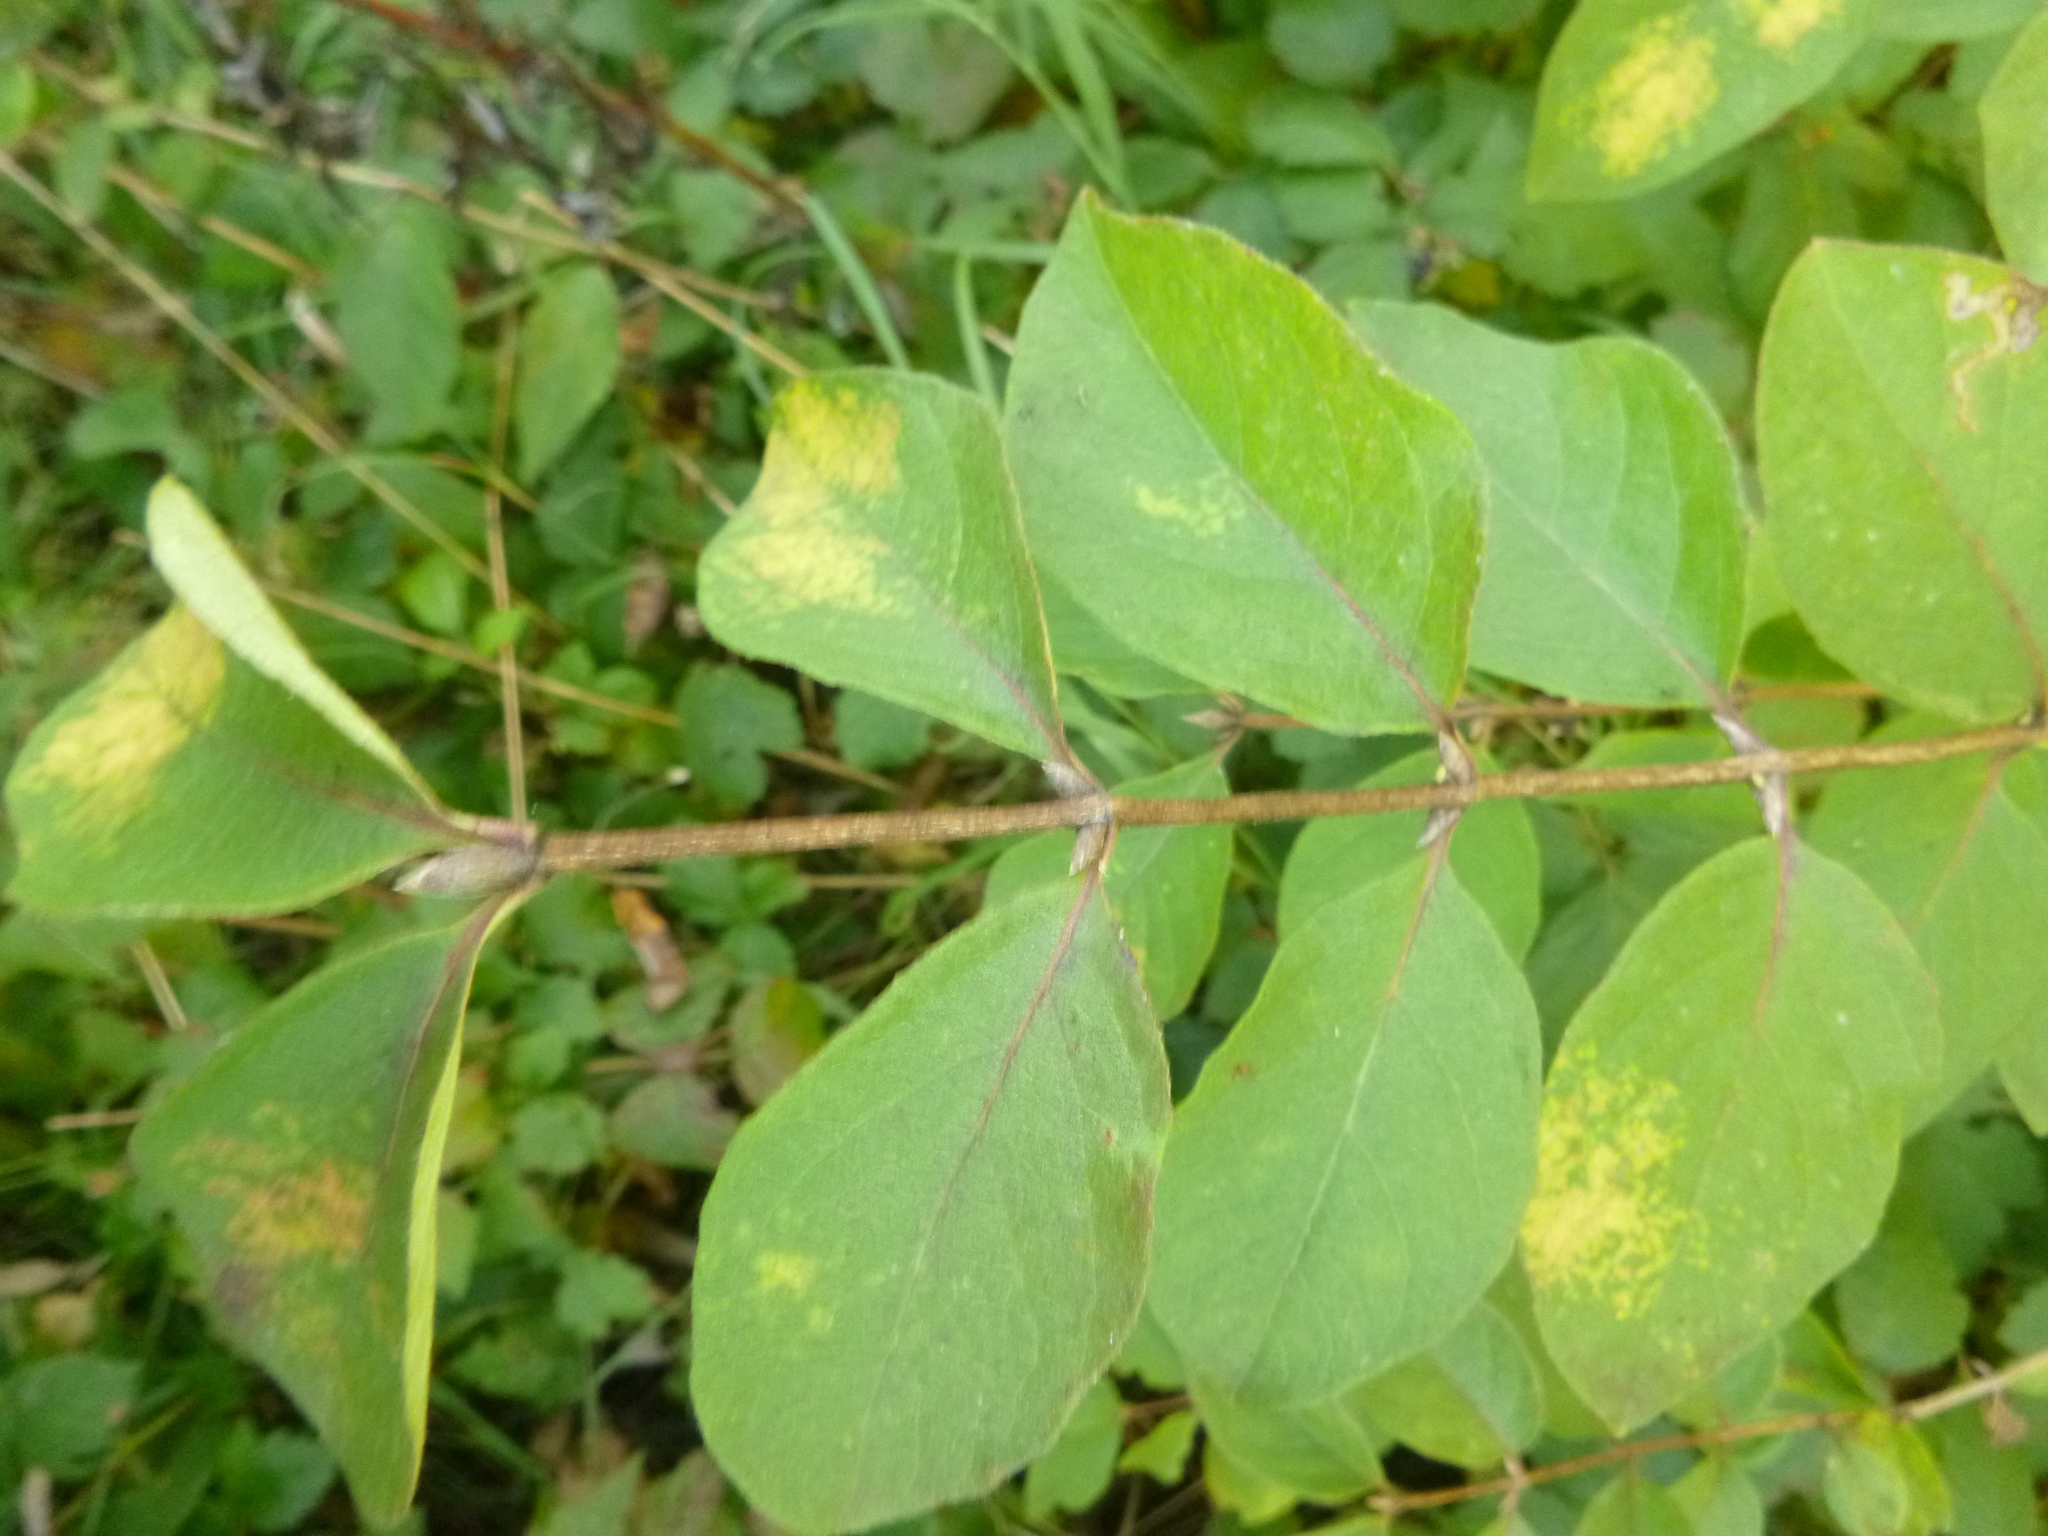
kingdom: Plantae
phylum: Tracheophyta
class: Magnoliopsida
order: Dipsacales
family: Caprifoliaceae
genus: Lonicera
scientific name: Lonicera xylosteum
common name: Fly honeysuckle
